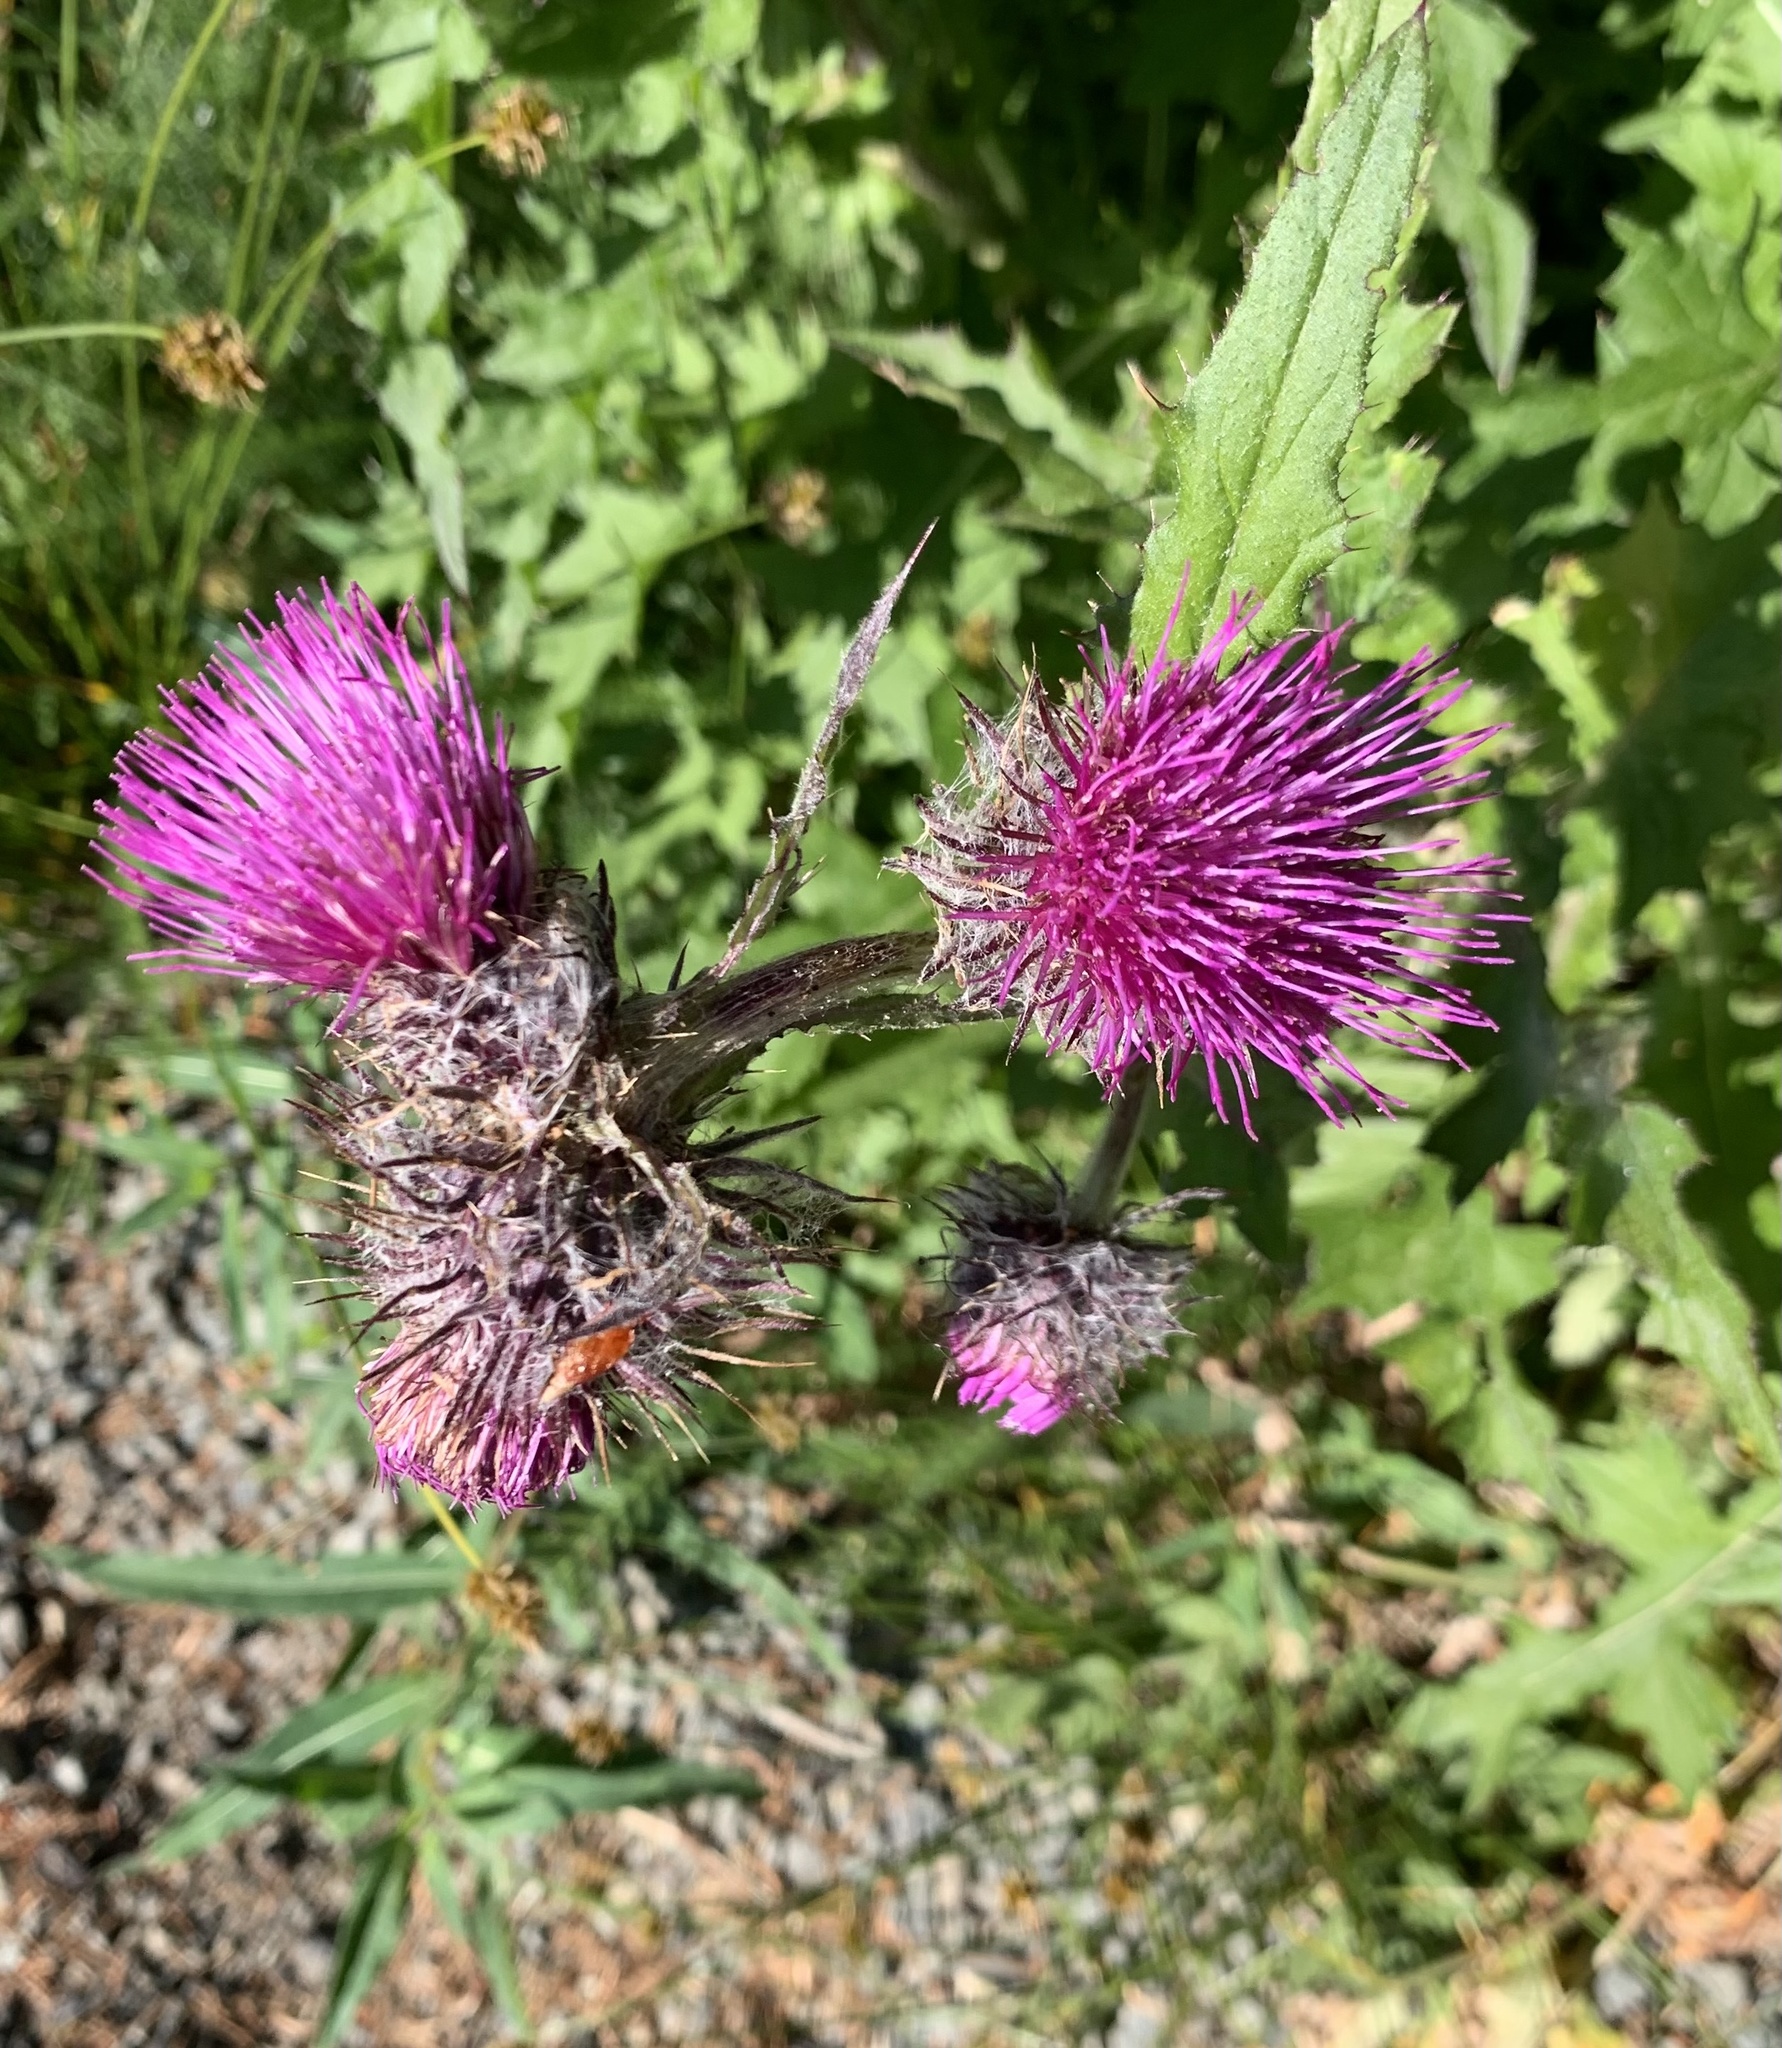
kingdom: Plantae
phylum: Tracheophyta
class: Magnoliopsida
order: Asterales
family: Asteraceae
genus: Cirsium
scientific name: Cirsium edule
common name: Indian thistle
